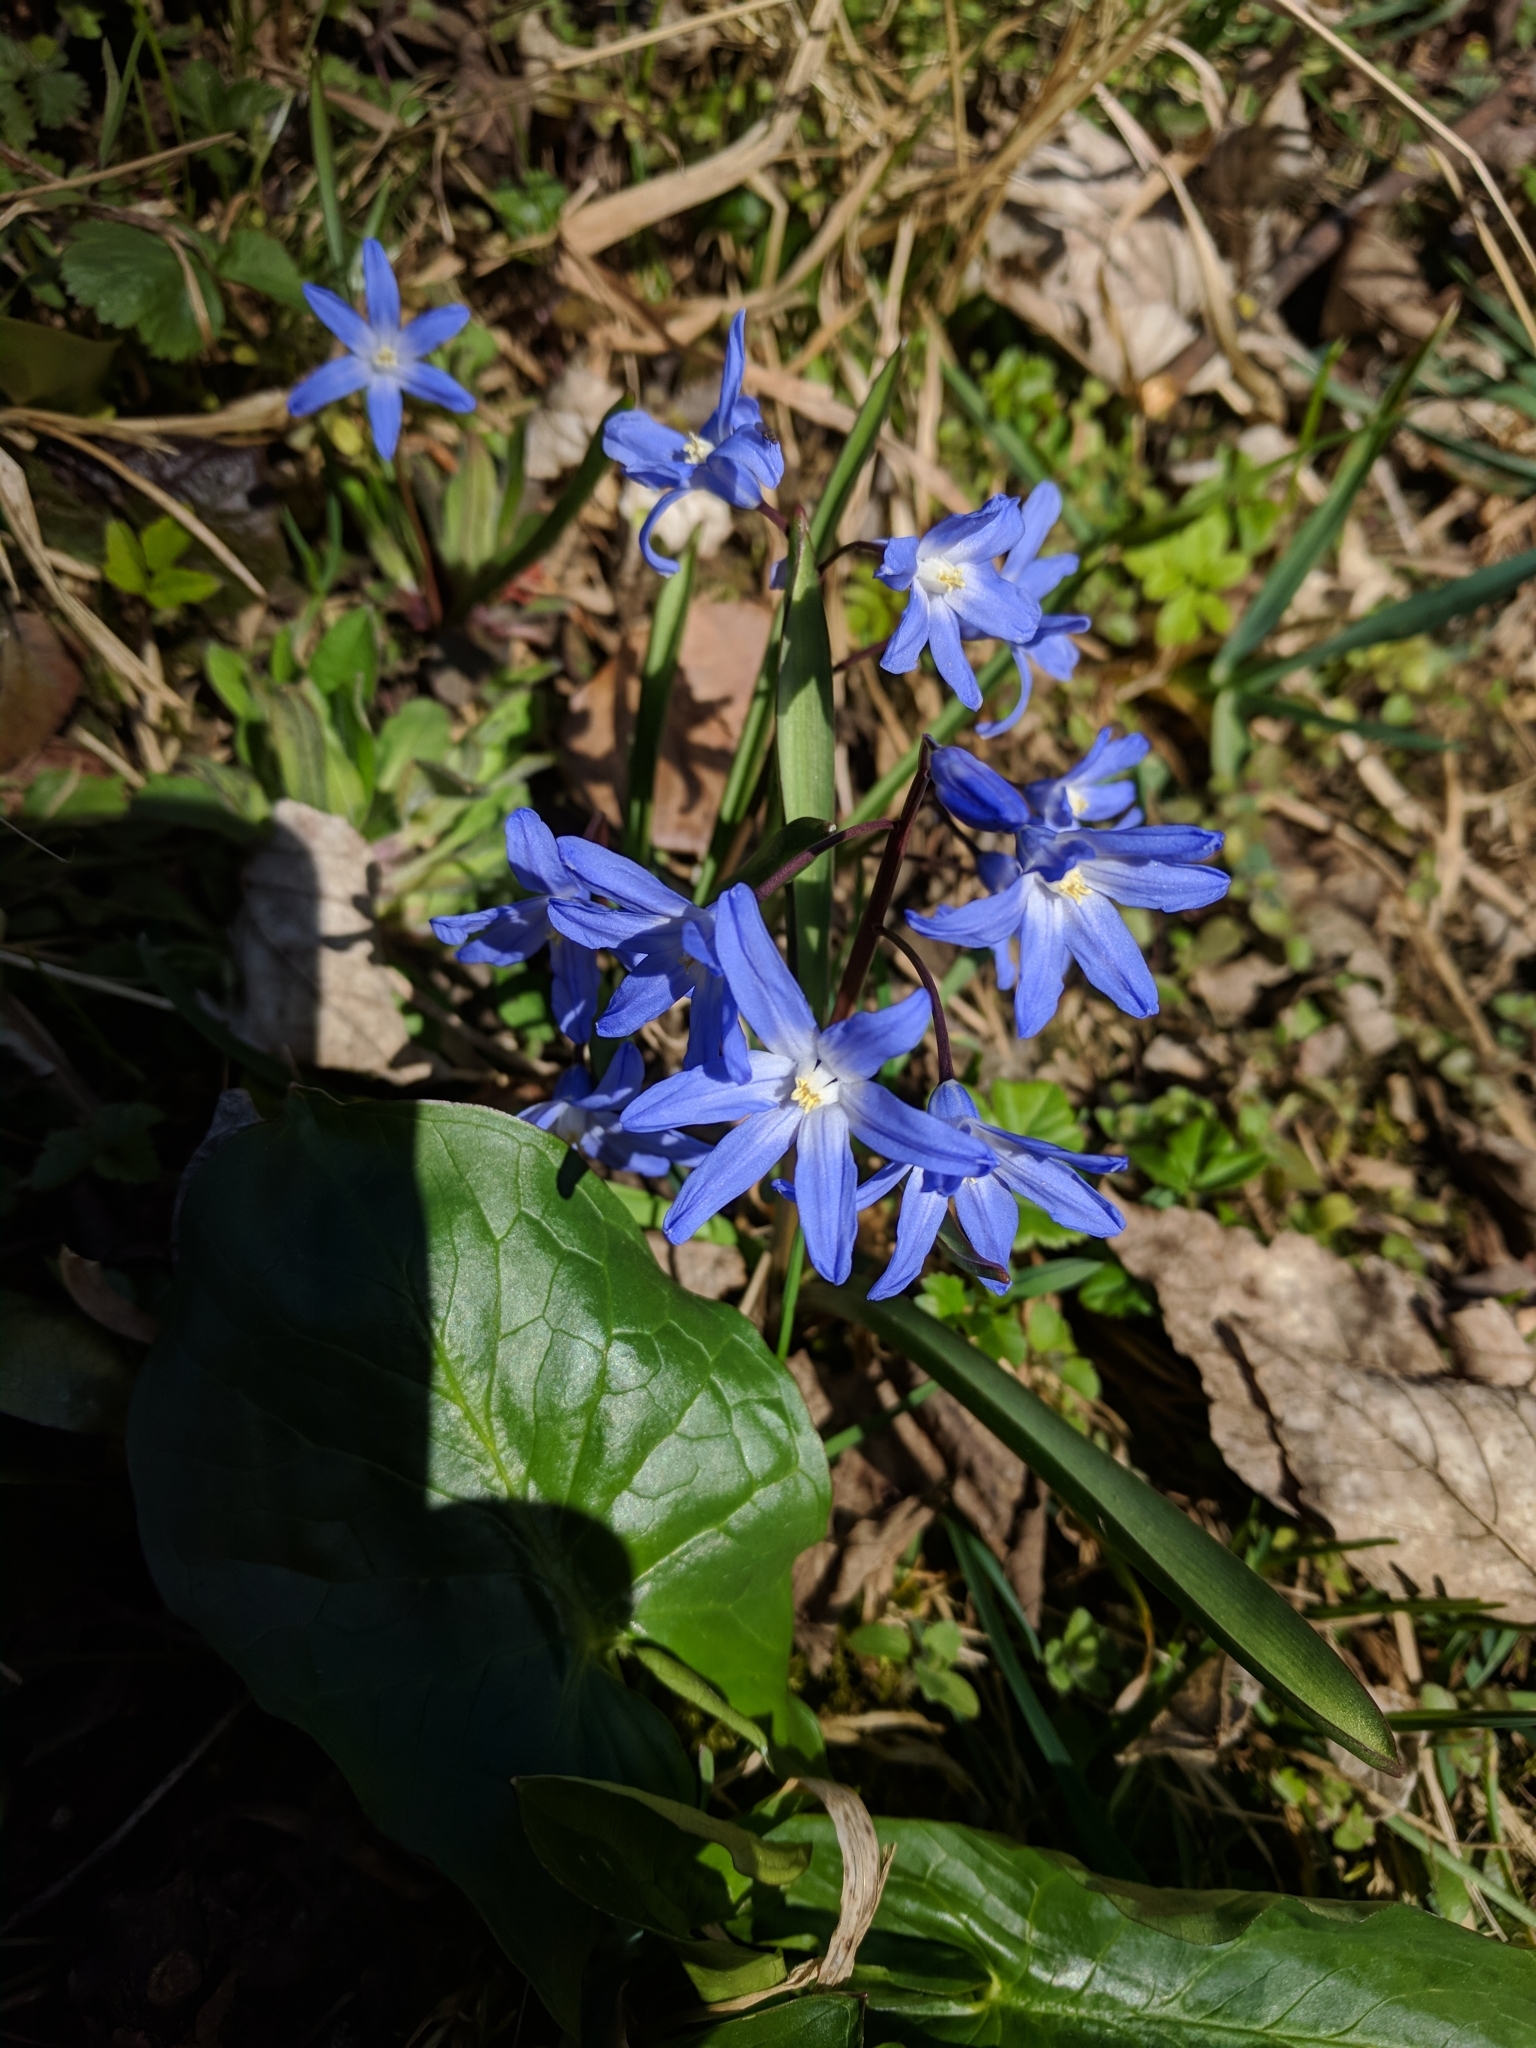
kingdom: Plantae
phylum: Tracheophyta
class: Liliopsida
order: Asparagales
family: Asparagaceae
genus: Scilla
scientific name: Scilla forbesii
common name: Glory-of-the-snow
